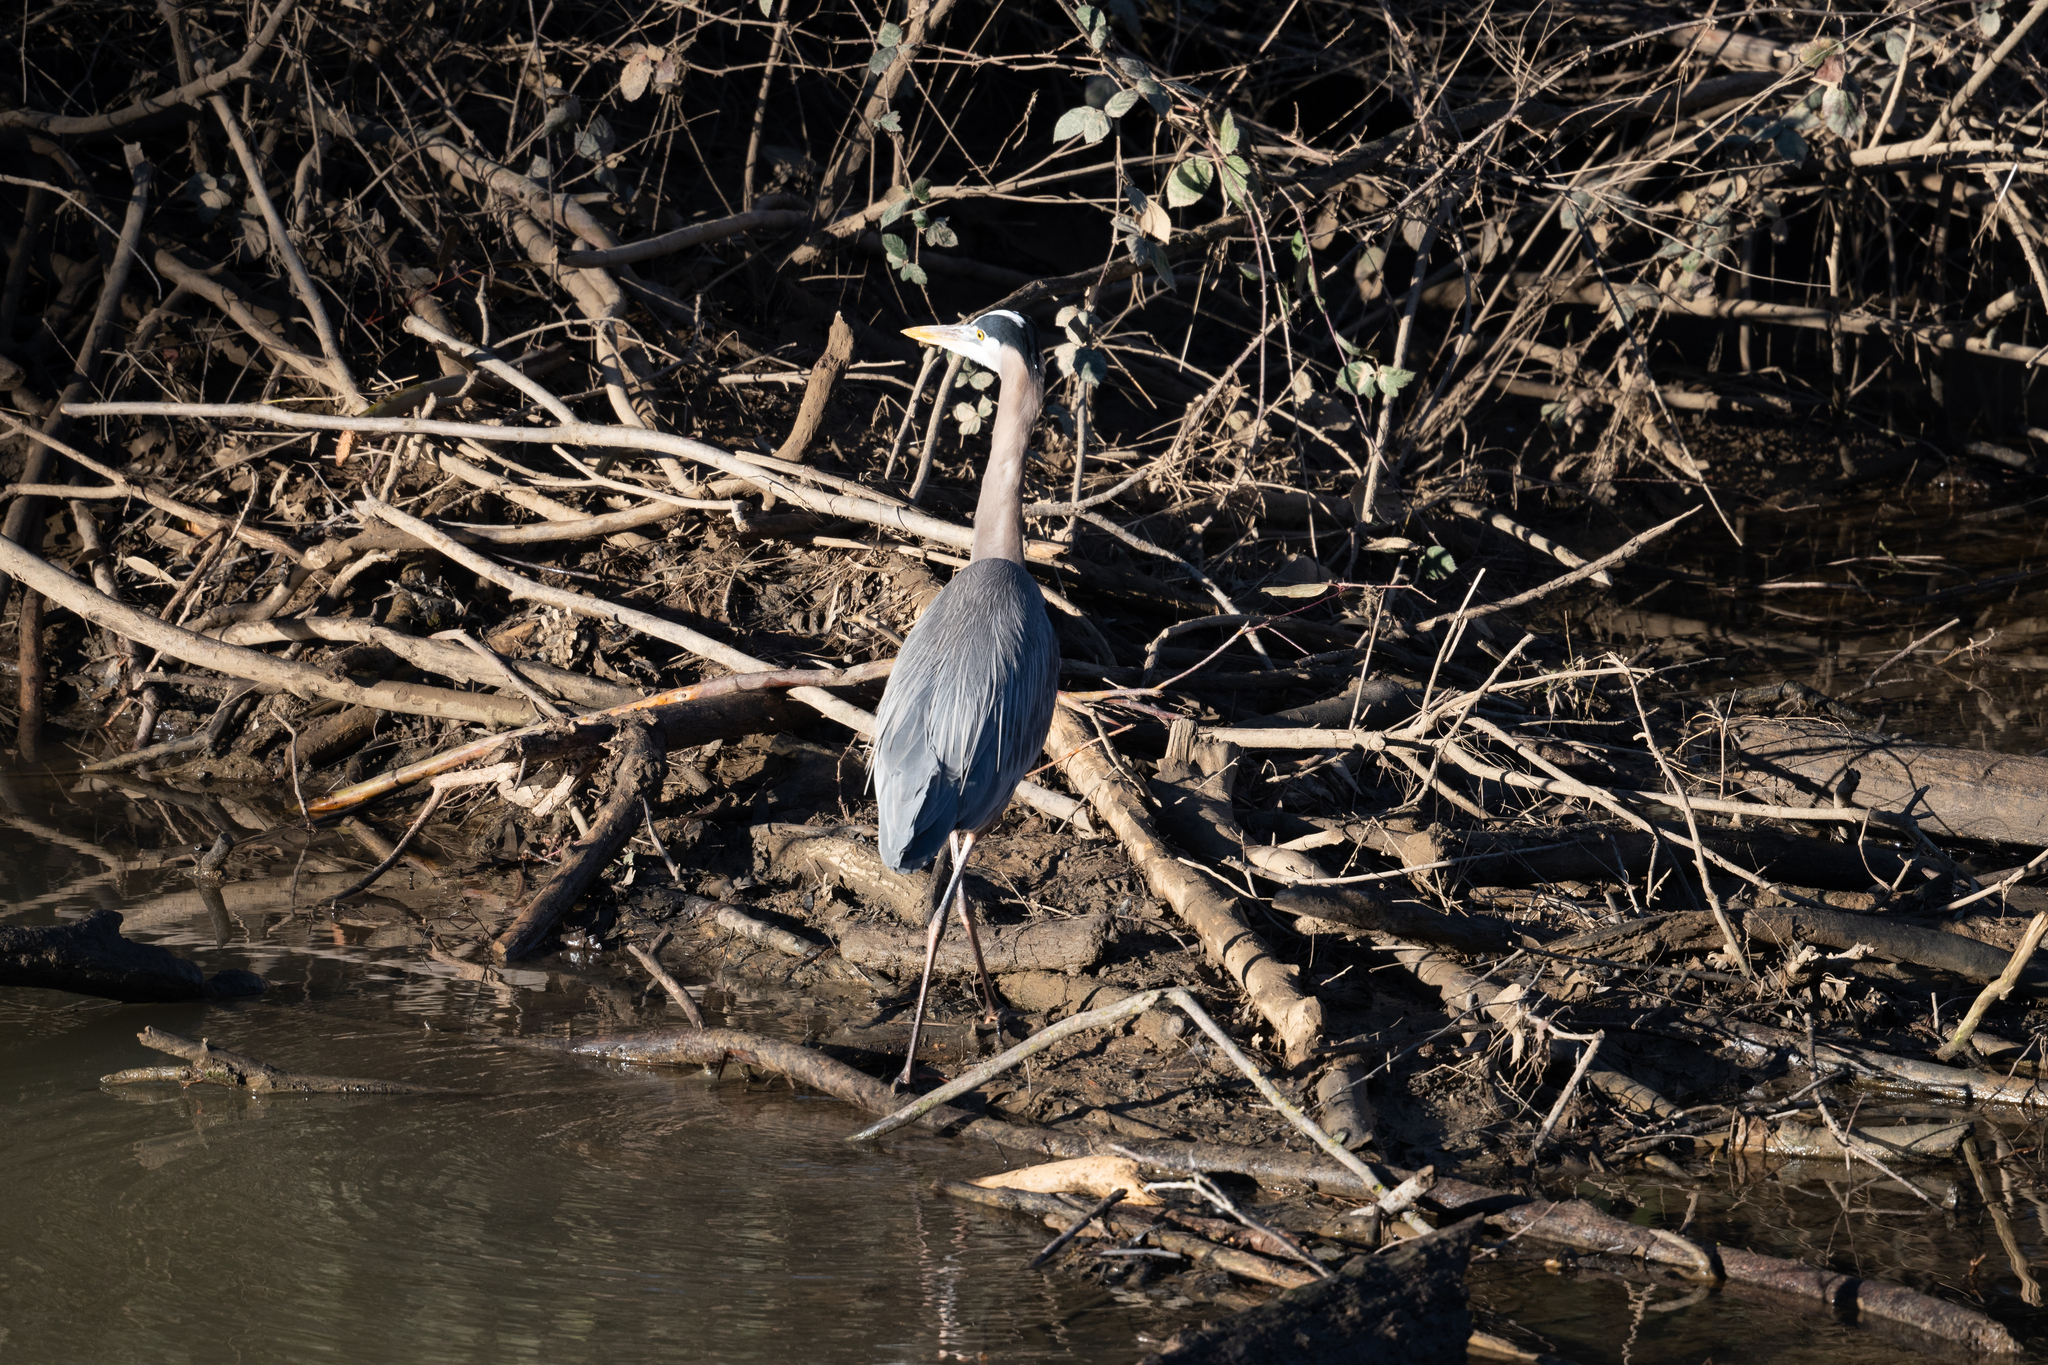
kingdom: Animalia
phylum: Chordata
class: Aves
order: Pelecaniformes
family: Ardeidae
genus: Ardea
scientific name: Ardea herodias
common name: Great blue heron
